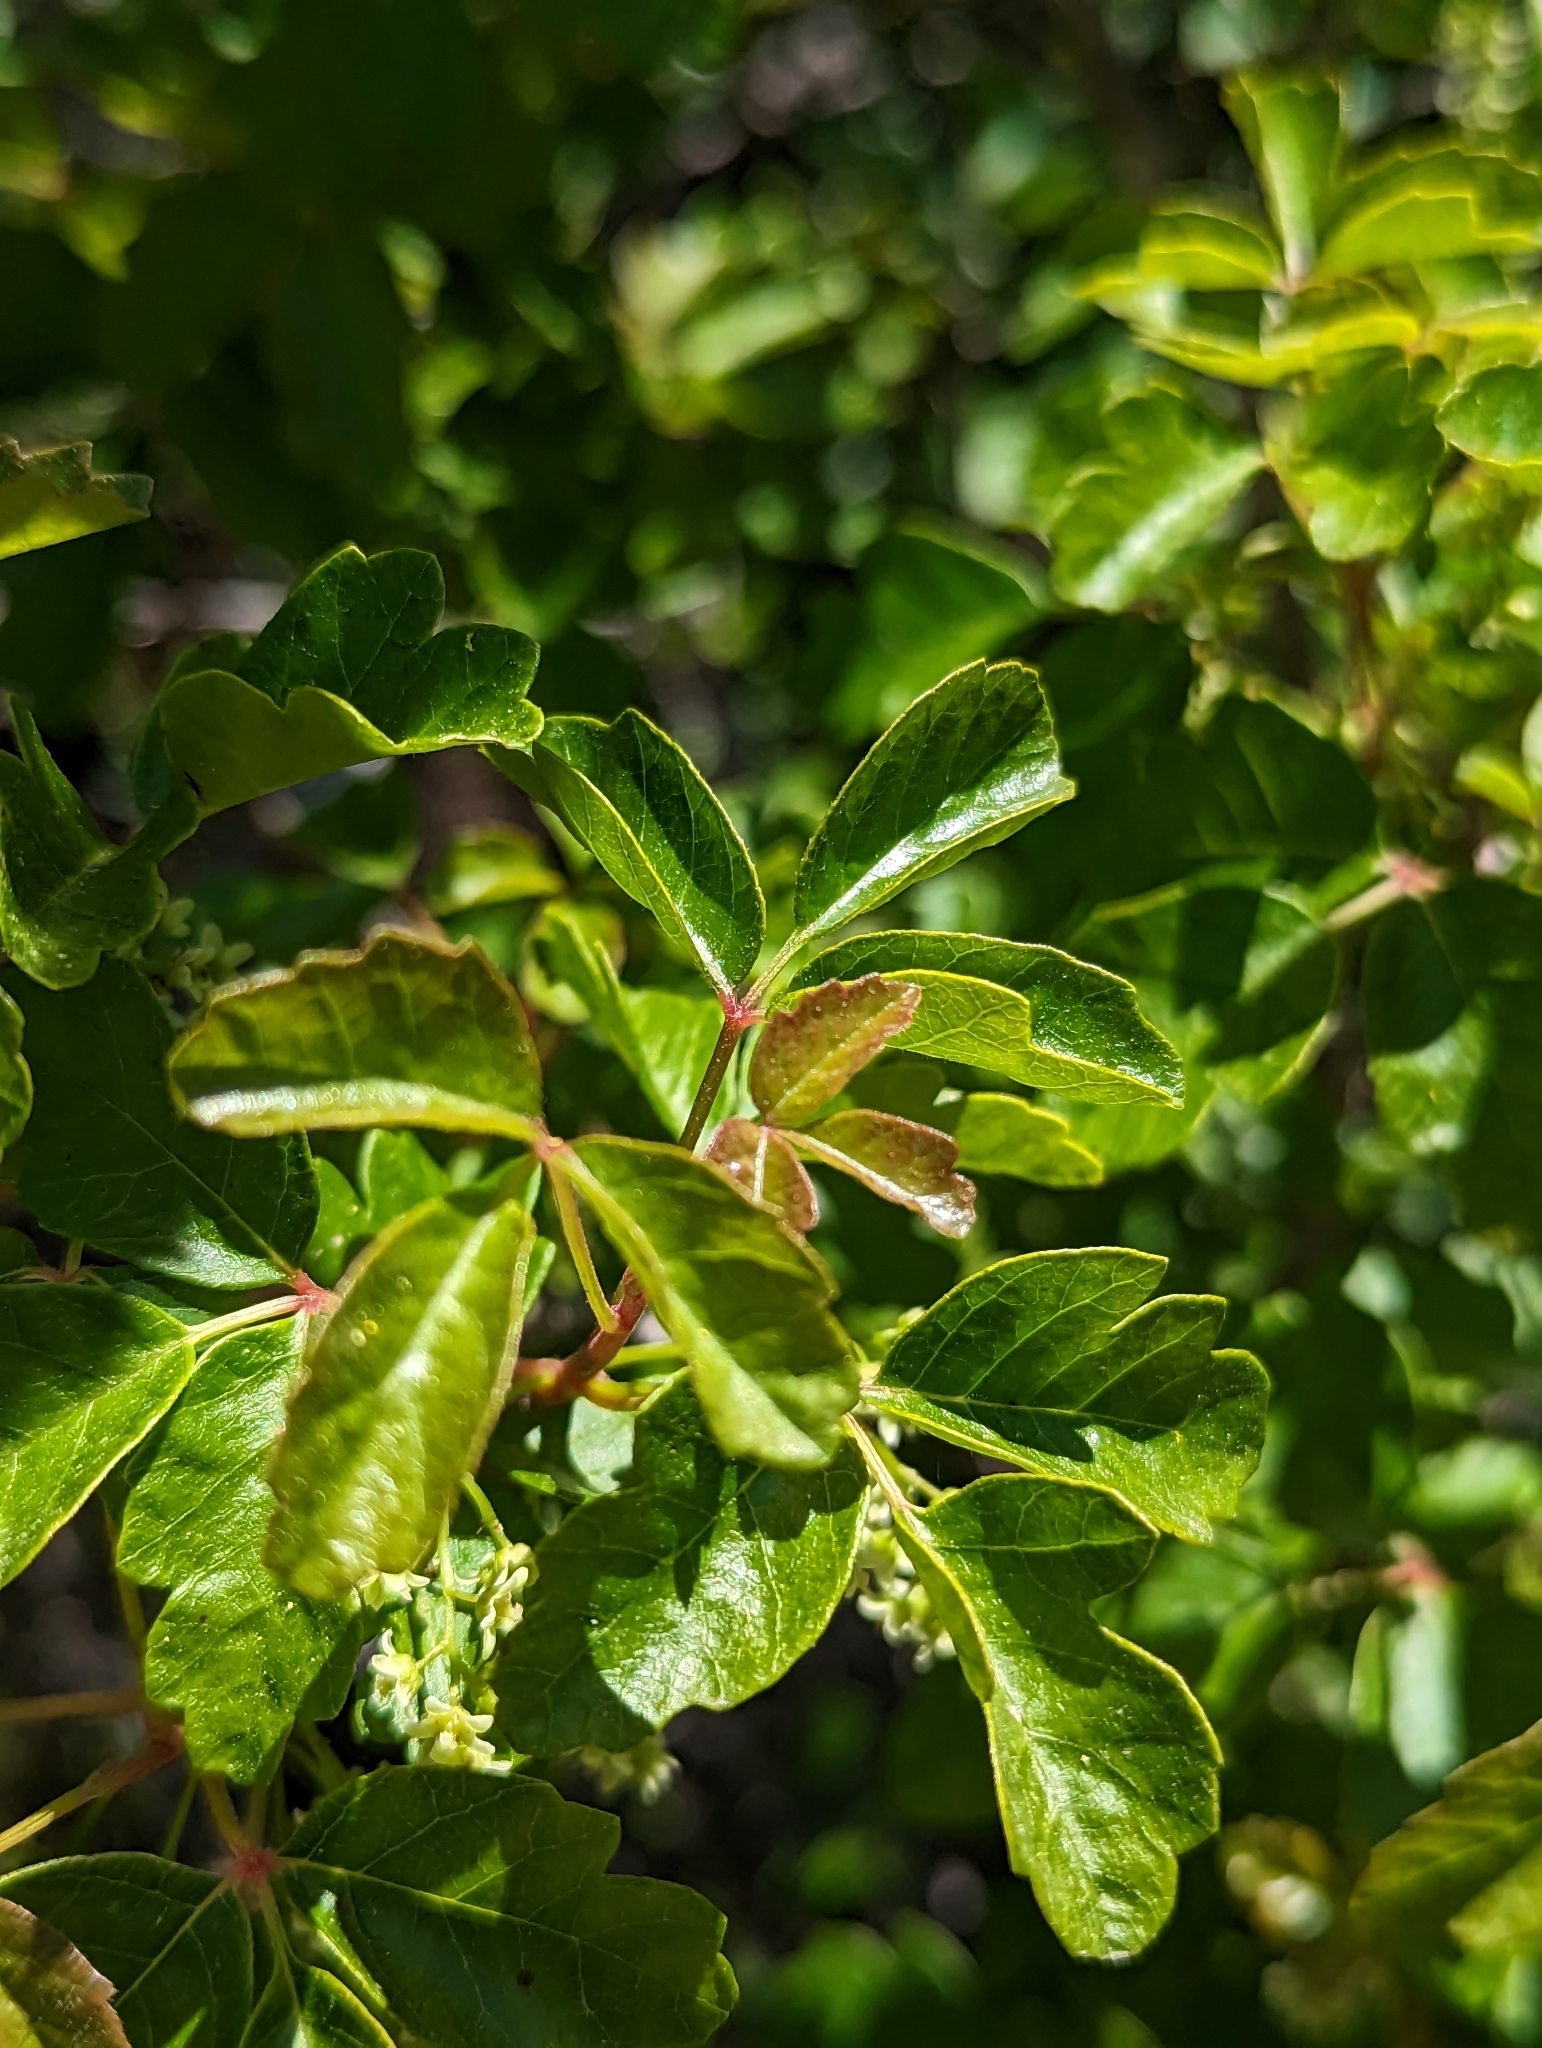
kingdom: Plantae
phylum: Tracheophyta
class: Magnoliopsida
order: Sapindales
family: Anacardiaceae
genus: Toxicodendron
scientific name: Toxicodendron diversilobum
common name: Pacific poison-oak
